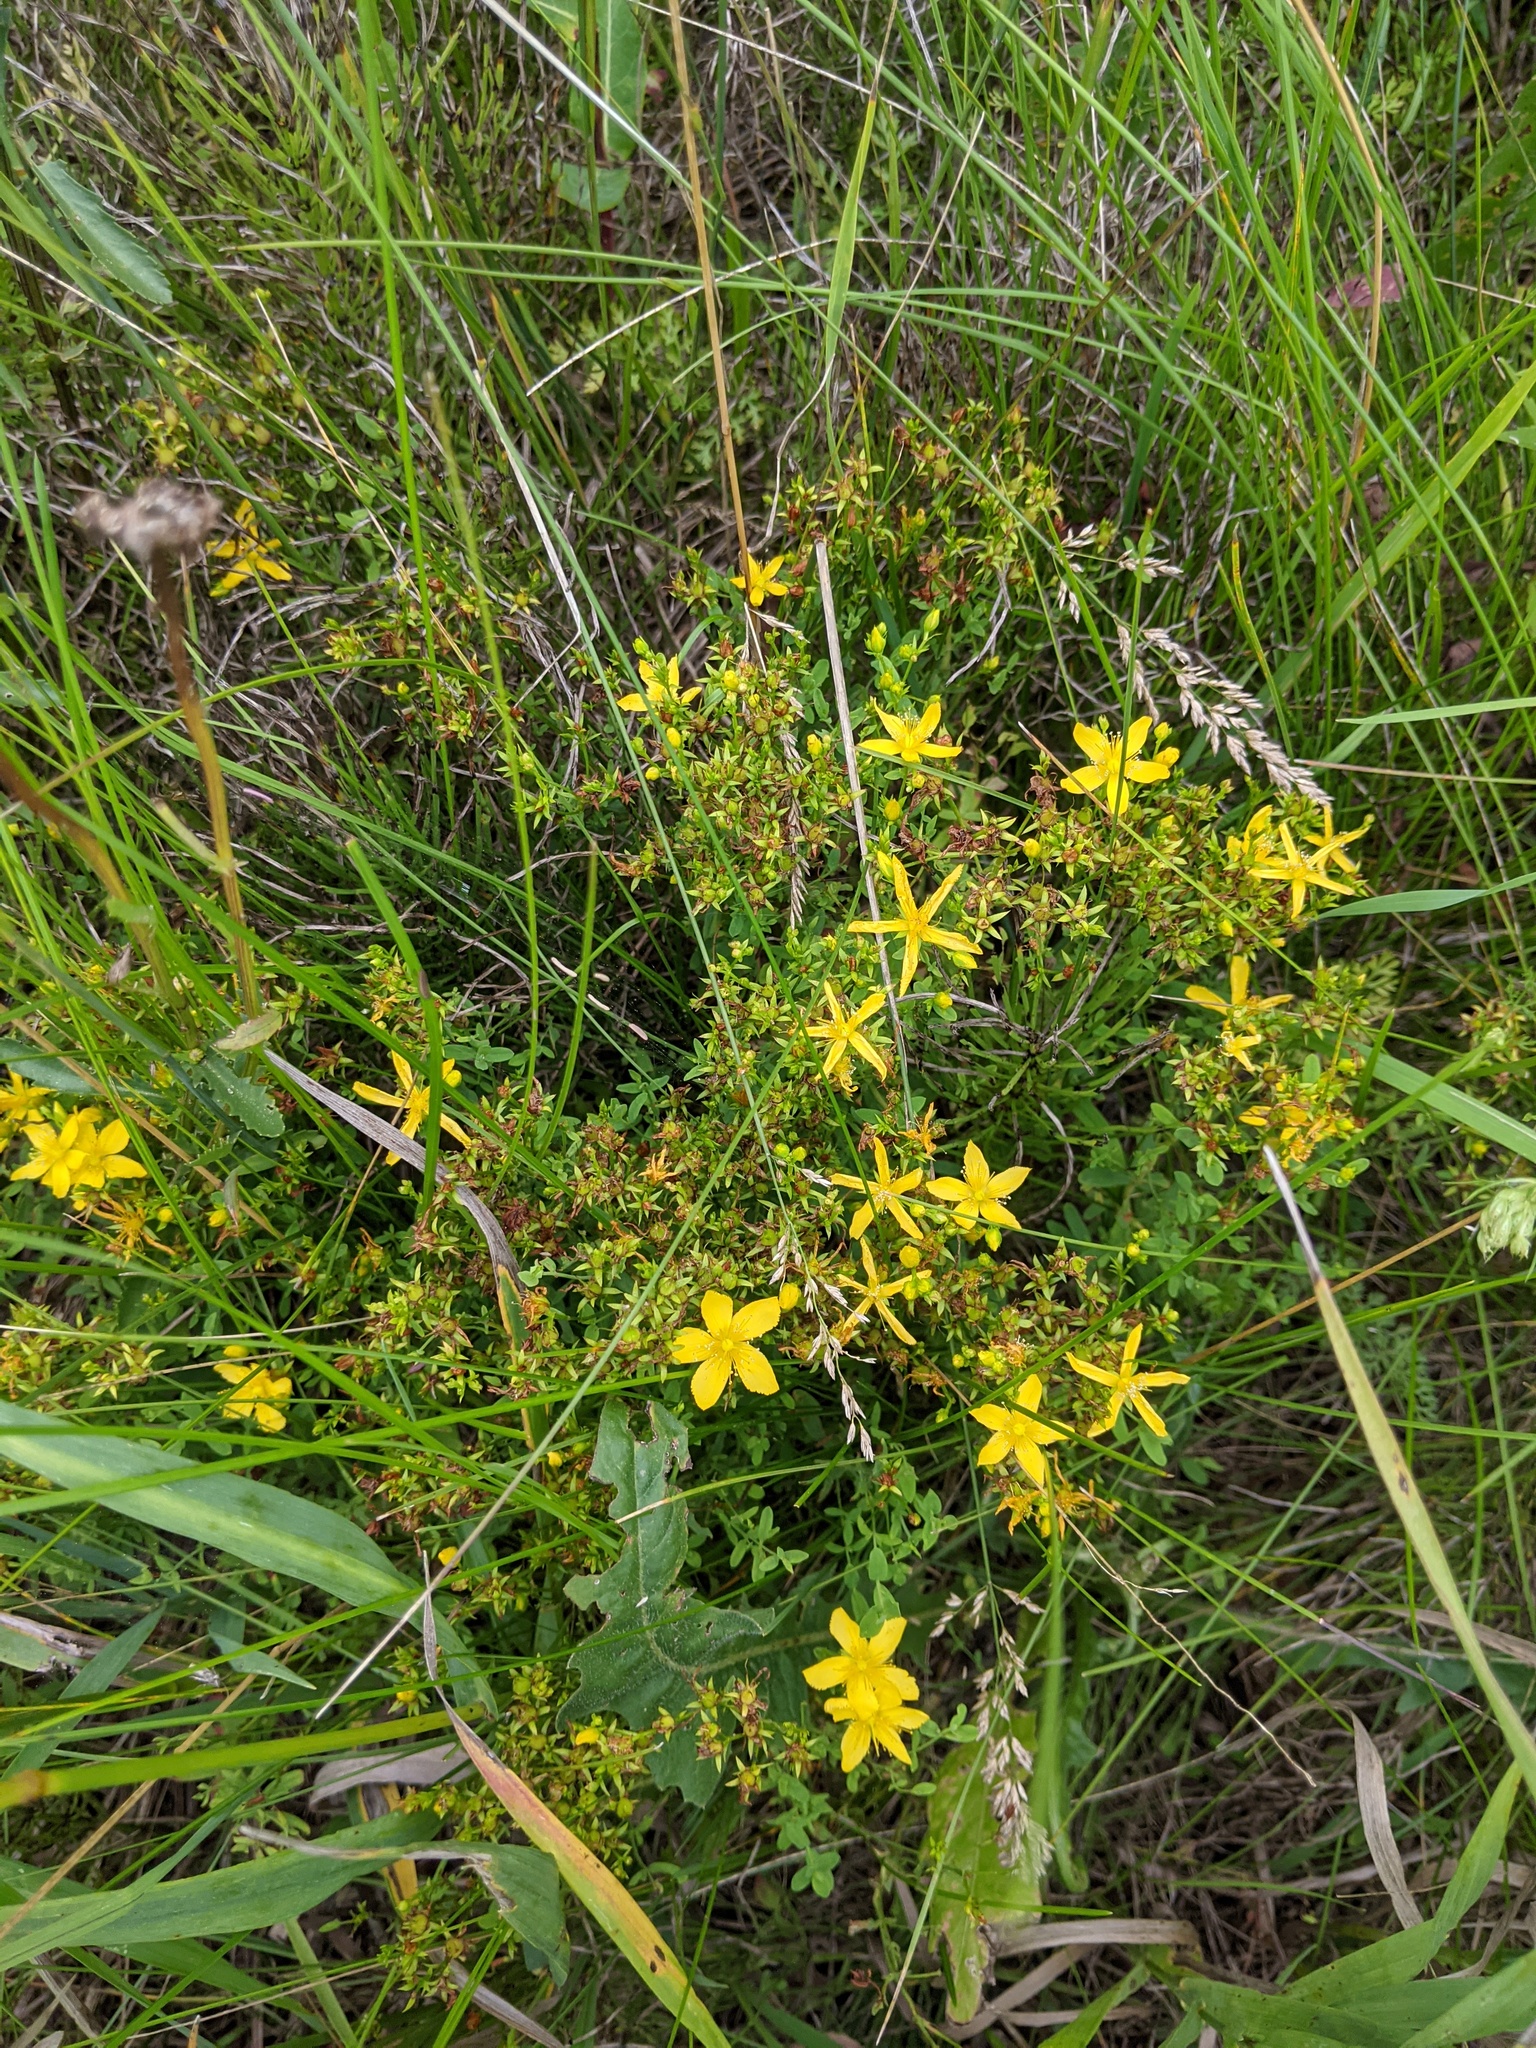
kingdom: Plantae
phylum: Tracheophyta
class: Magnoliopsida
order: Malpighiales
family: Hypericaceae
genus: Hypericum
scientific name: Hypericum perforatum
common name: Common st. johnswort
